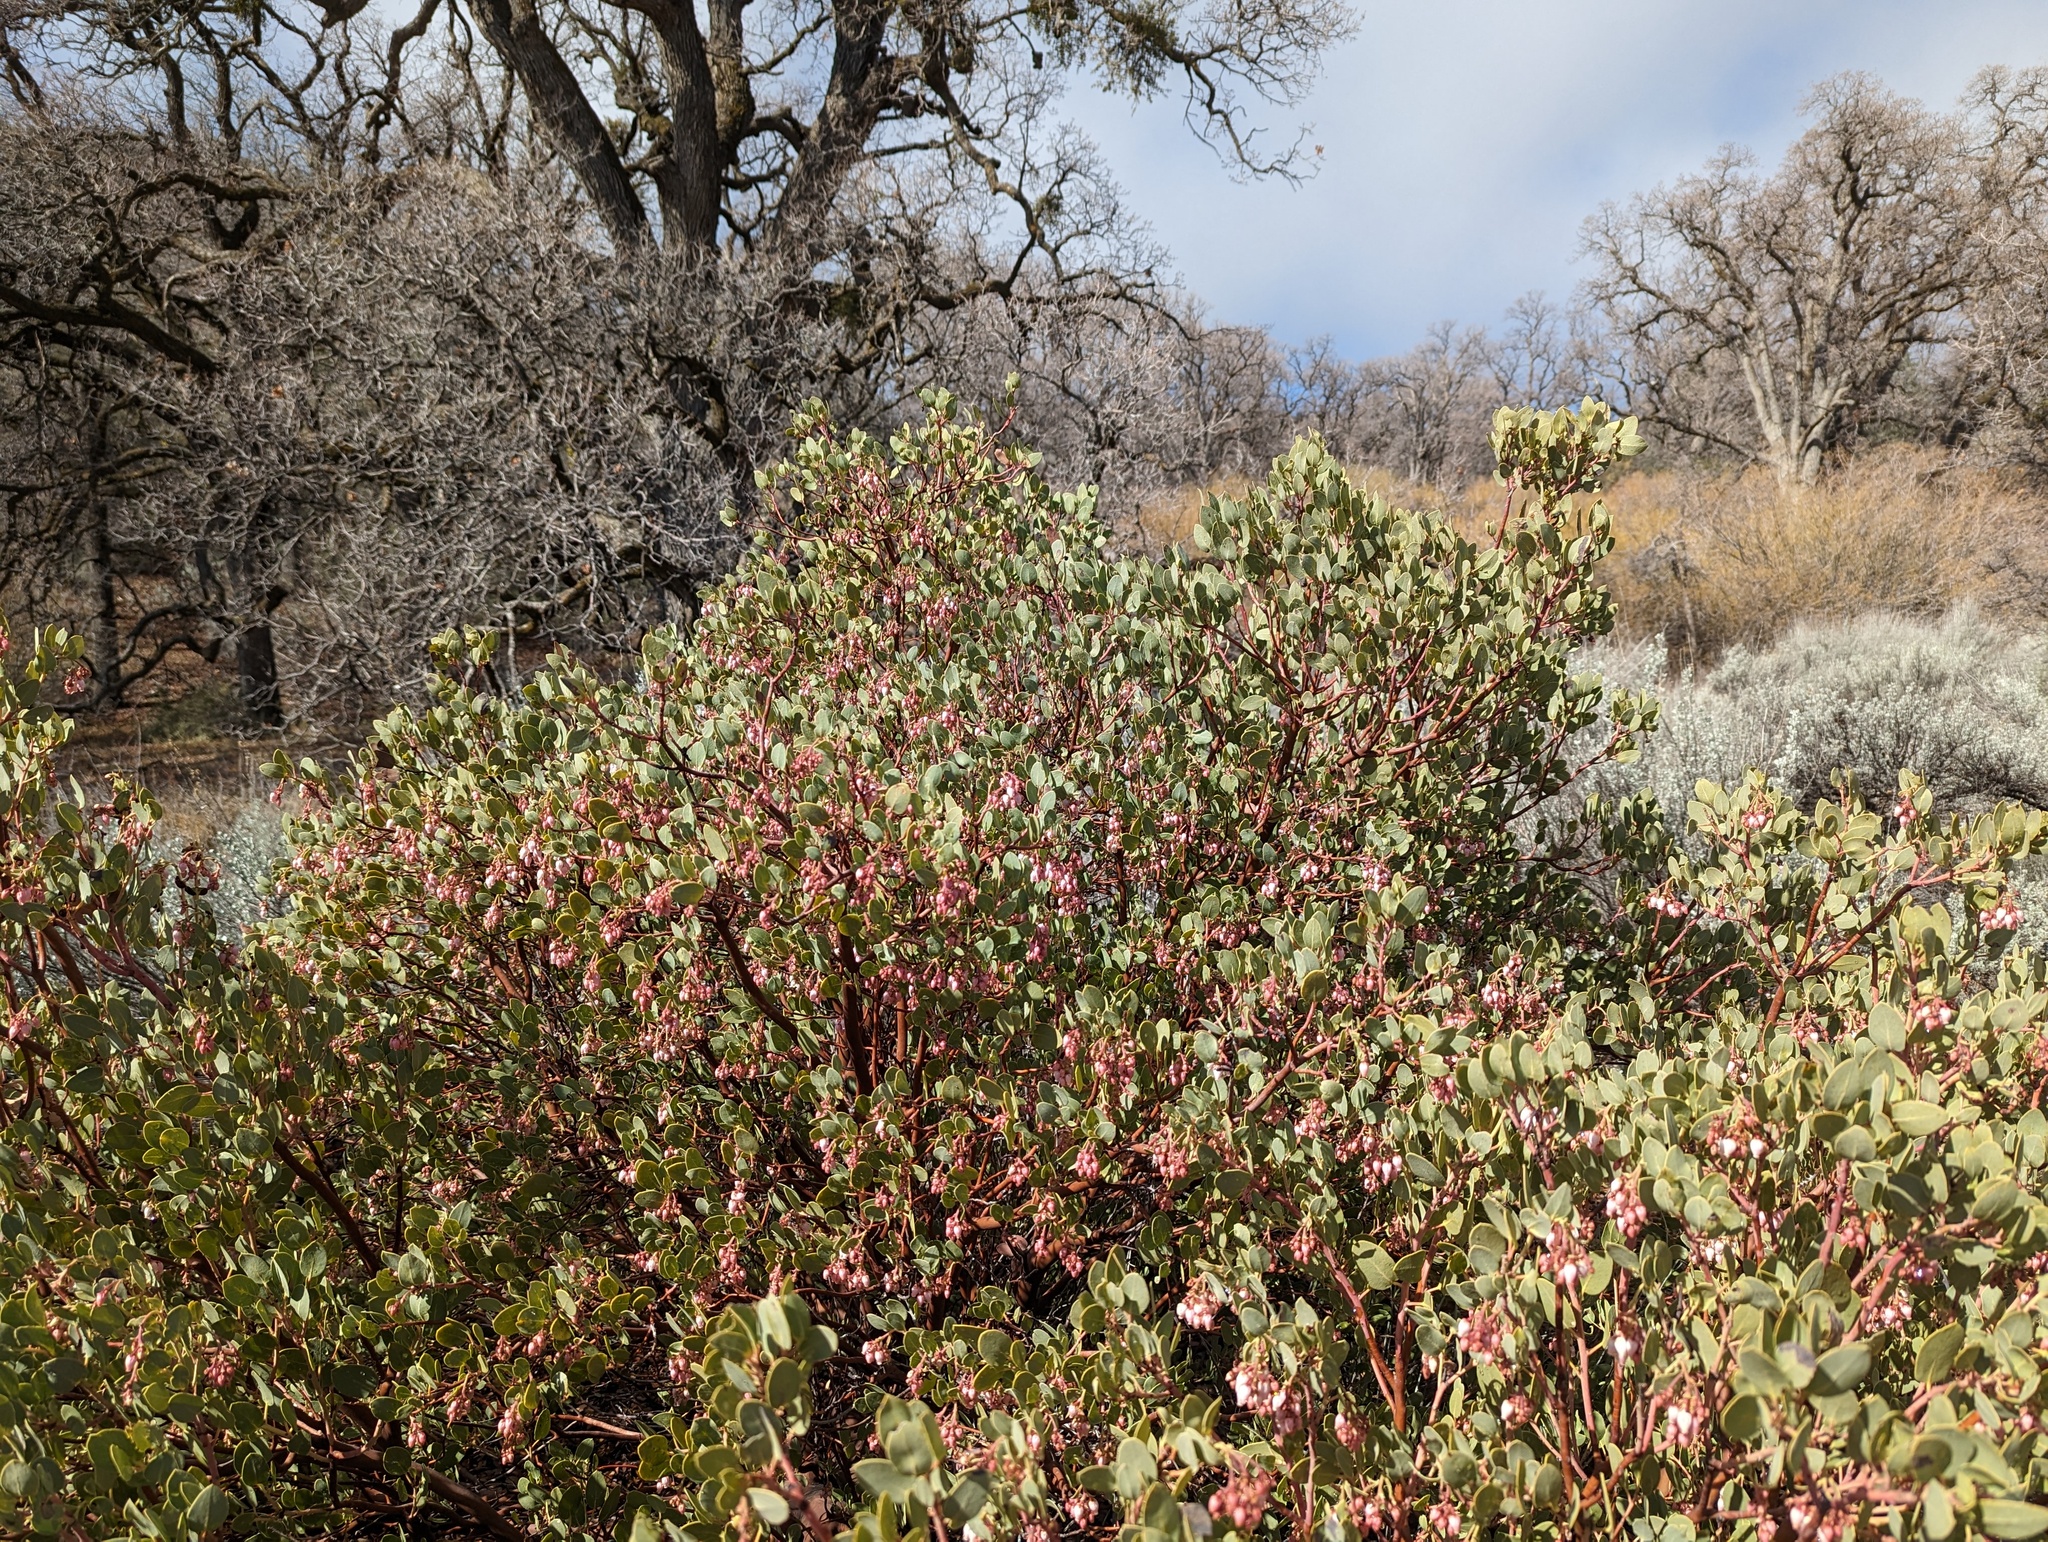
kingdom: Plantae
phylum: Tracheophyta
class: Magnoliopsida
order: Ericales
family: Ericaceae
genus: Arctostaphylos
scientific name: Arctostaphylos glauca
